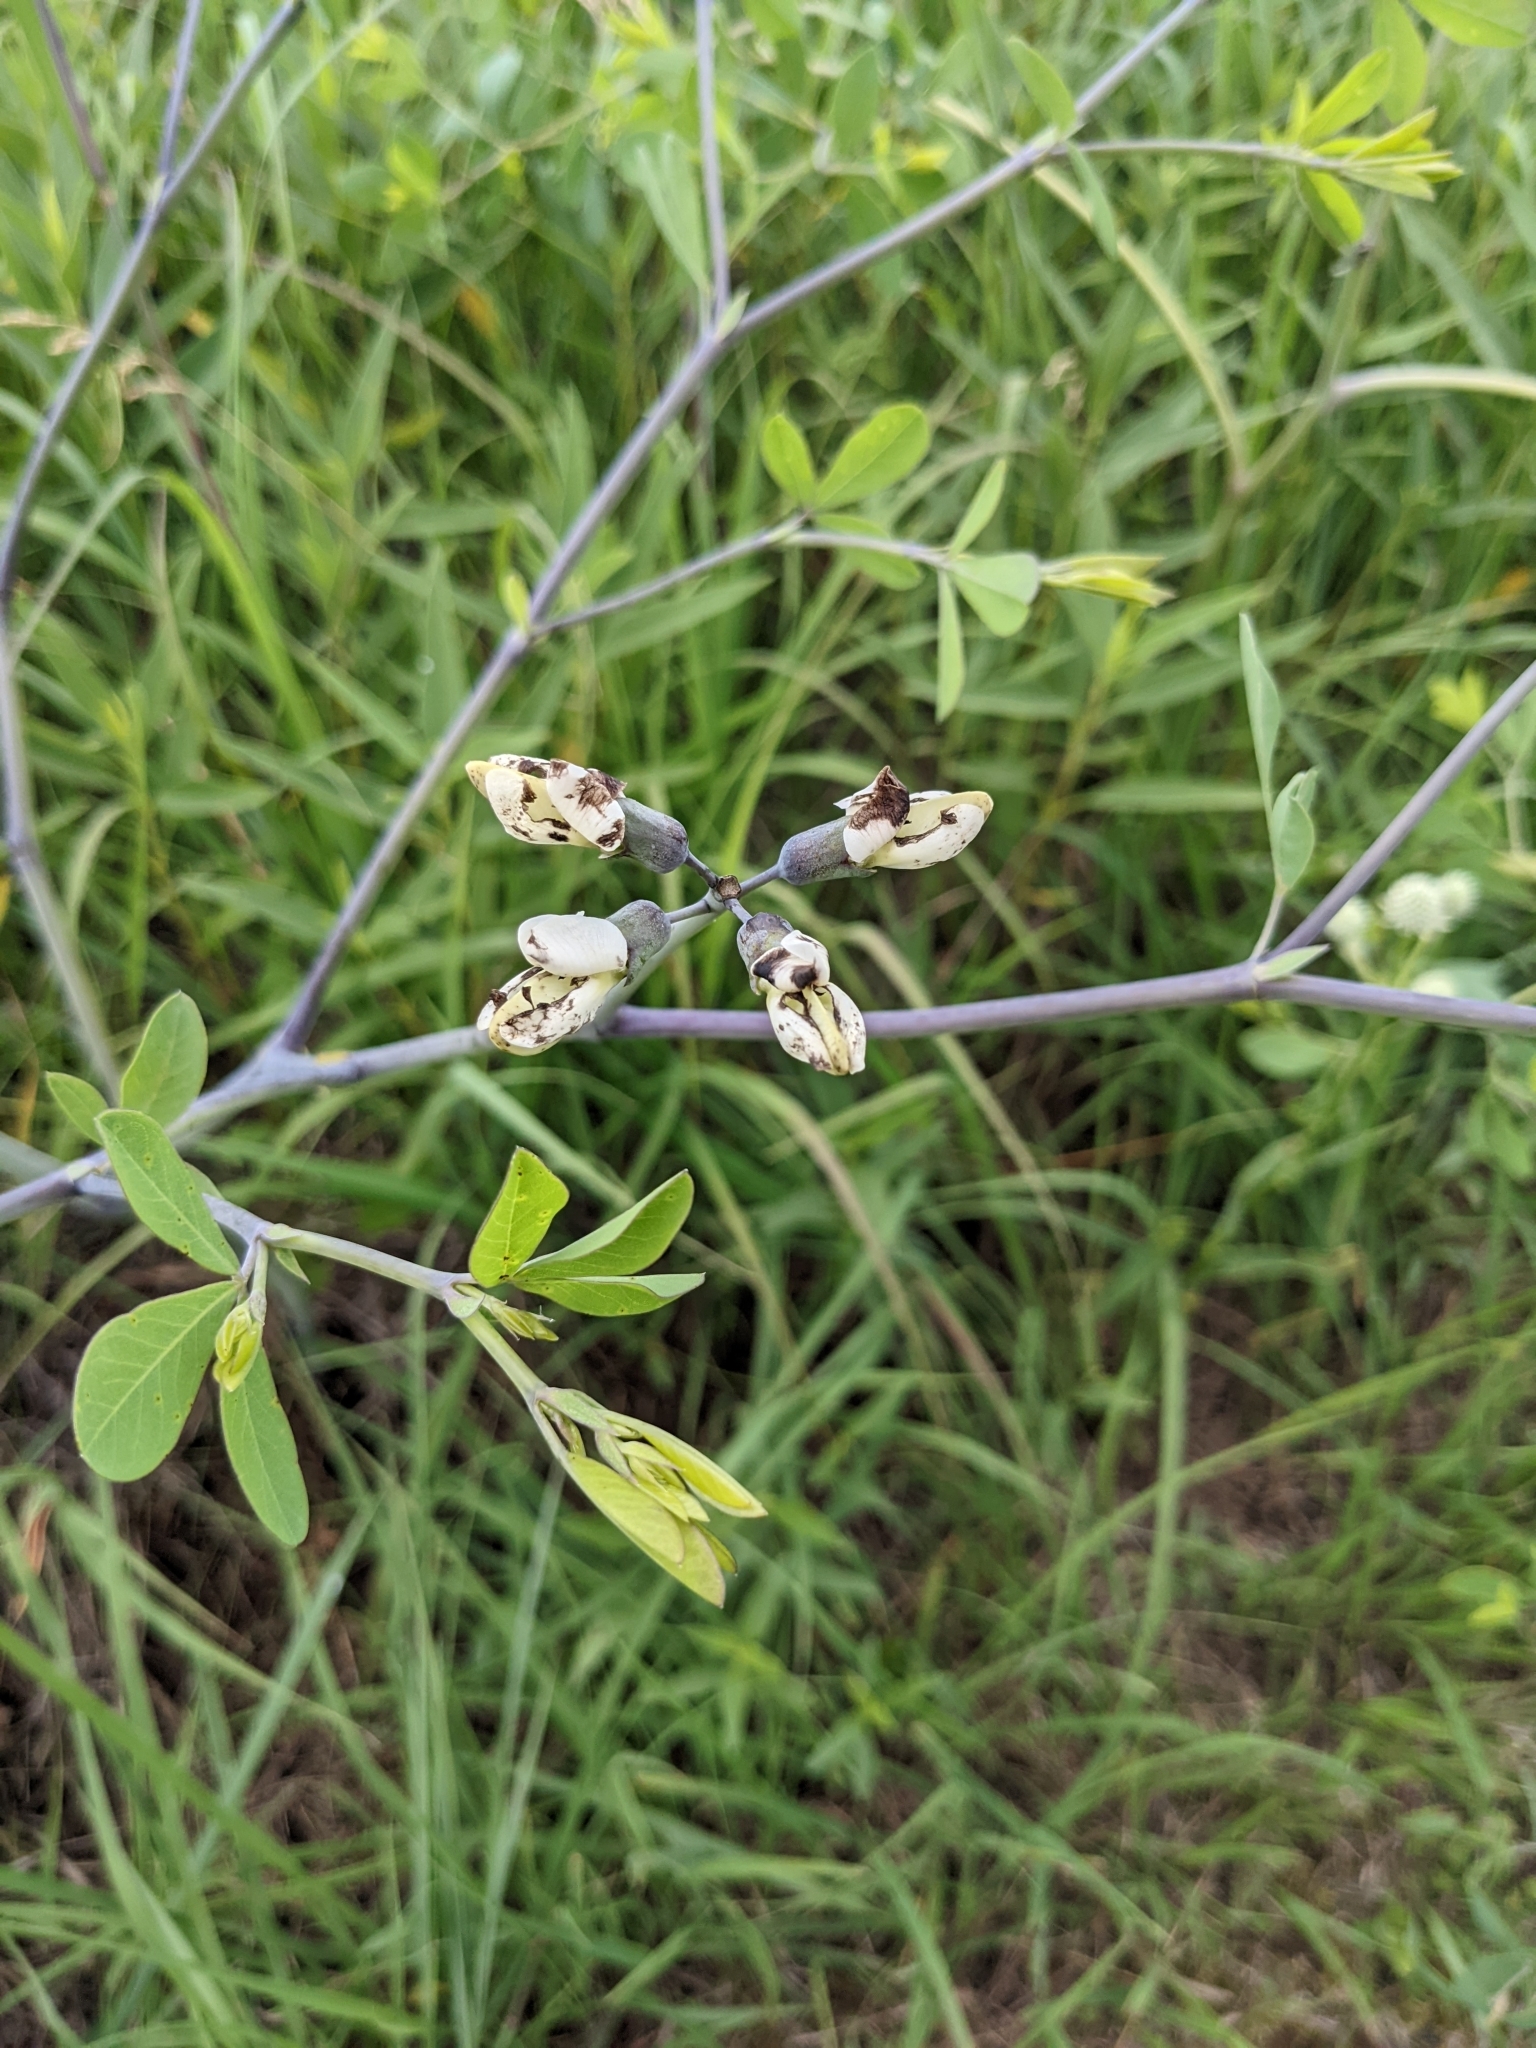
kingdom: Plantae
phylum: Tracheophyta
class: Magnoliopsida
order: Fabales
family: Fabaceae
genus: Baptisia
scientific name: Baptisia alba
